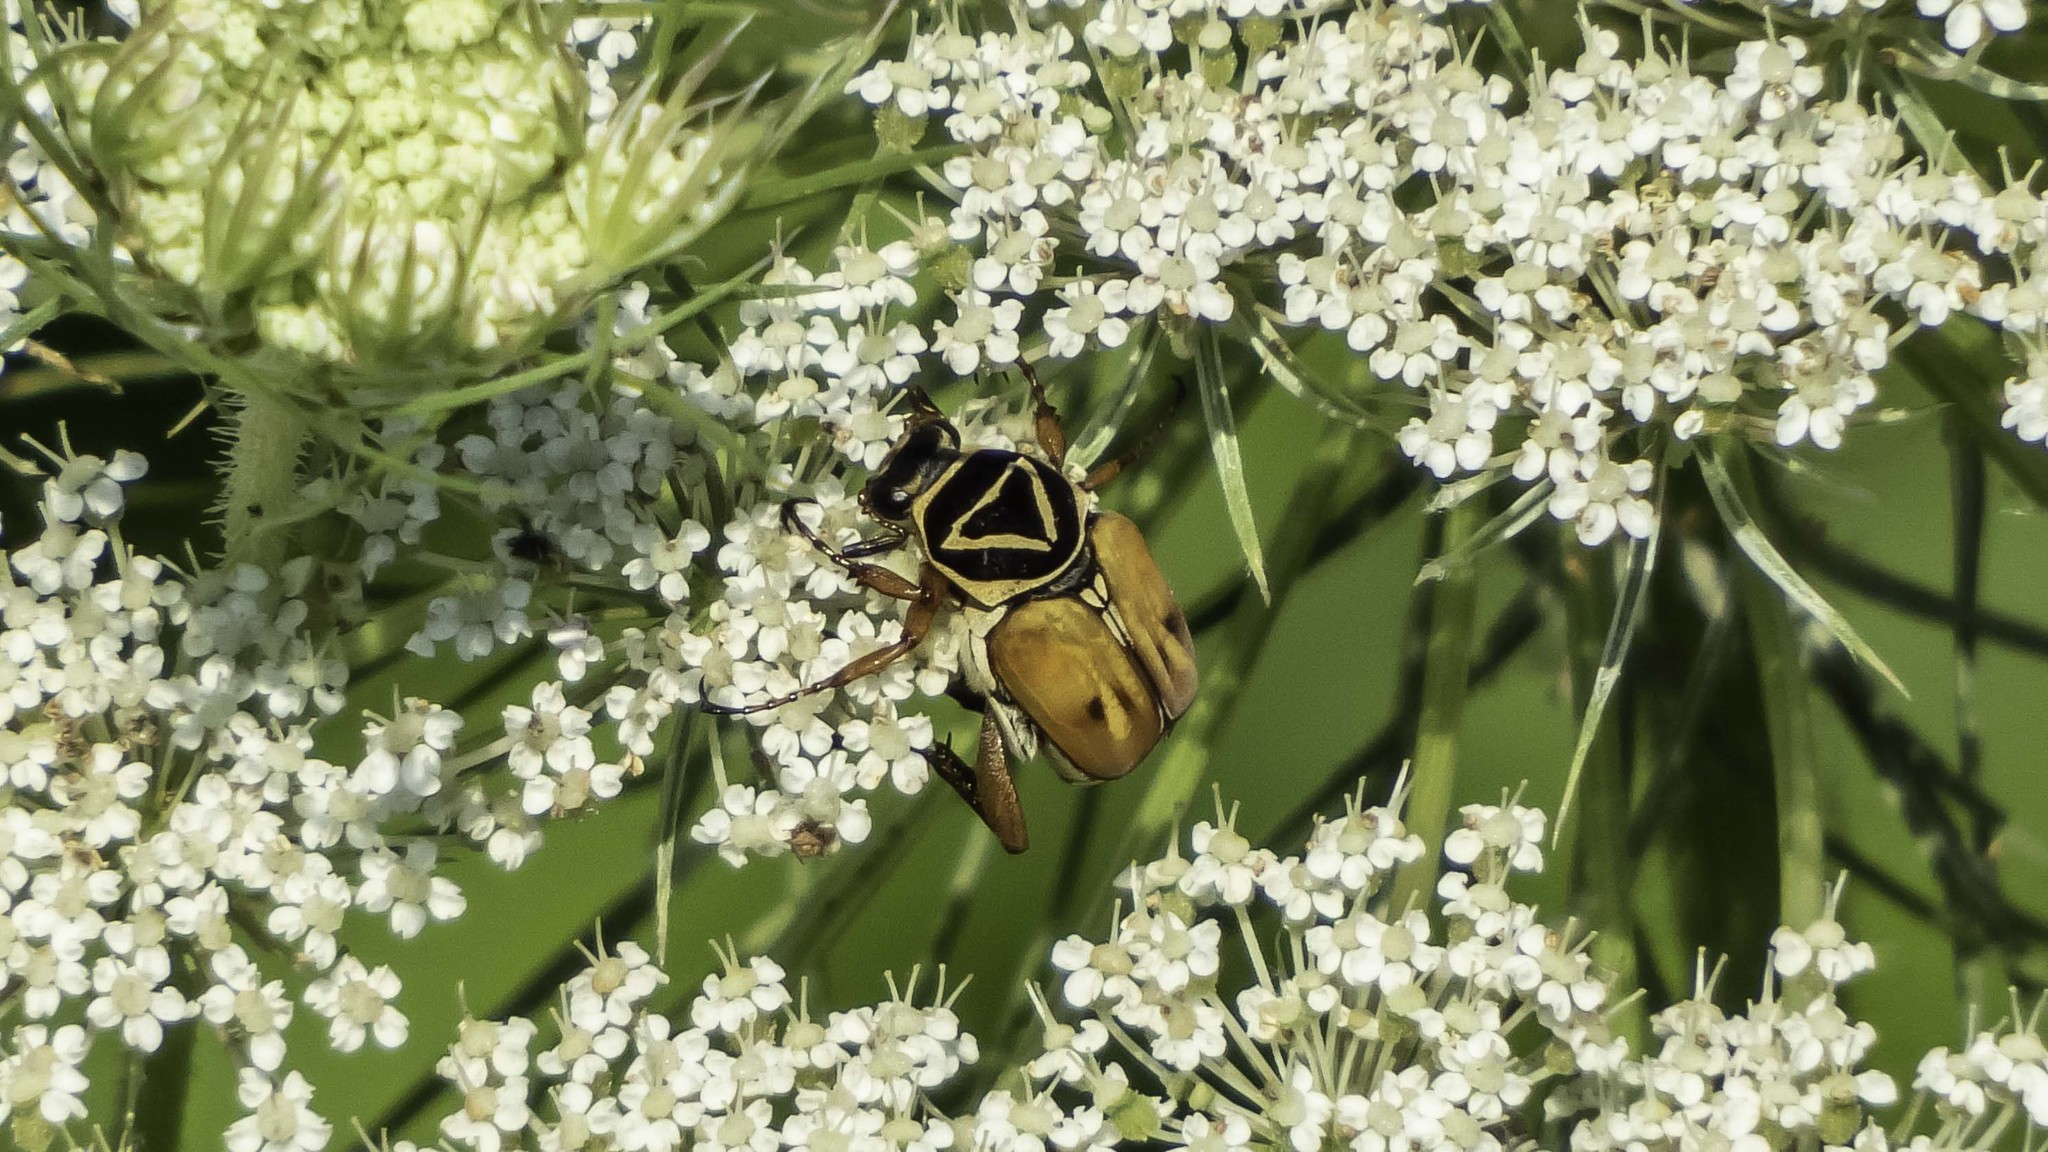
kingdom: Animalia
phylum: Arthropoda
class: Insecta
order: Coleoptera
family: Scarabaeidae
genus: Trigonopeltastes
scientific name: Trigonopeltastes delta
